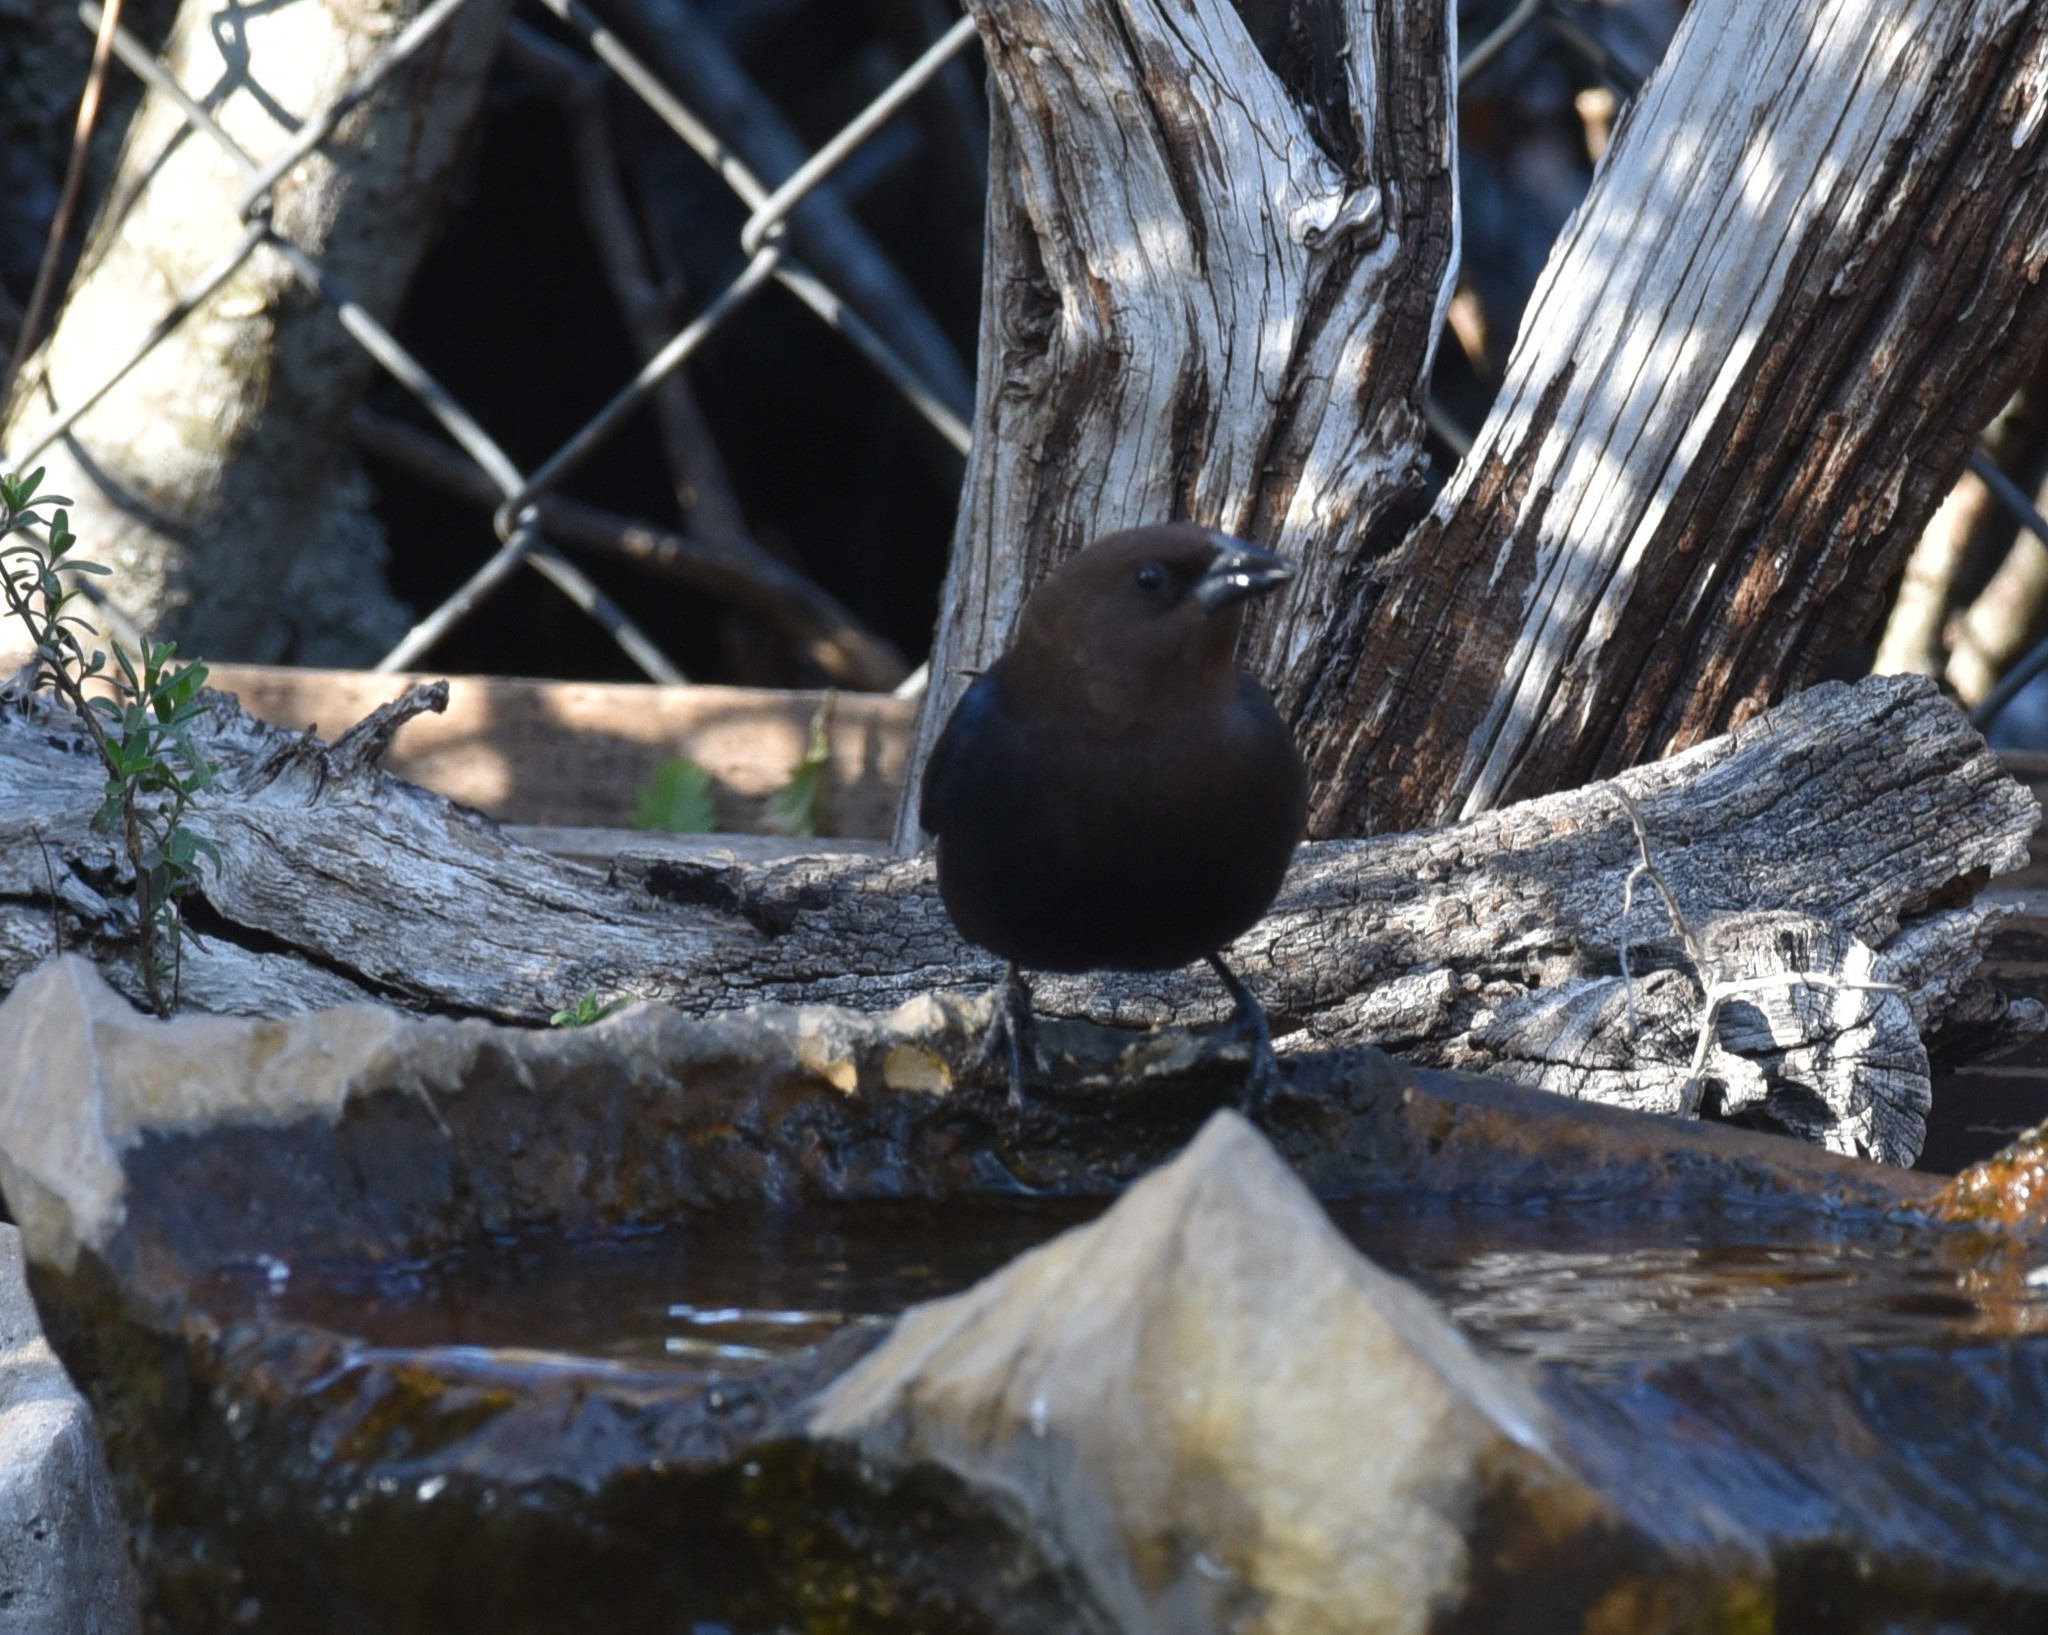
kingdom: Animalia
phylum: Chordata
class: Aves
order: Passeriformes
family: Icteridae
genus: Molothrus
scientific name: Molothrus ater
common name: Brown-headed cowbird
